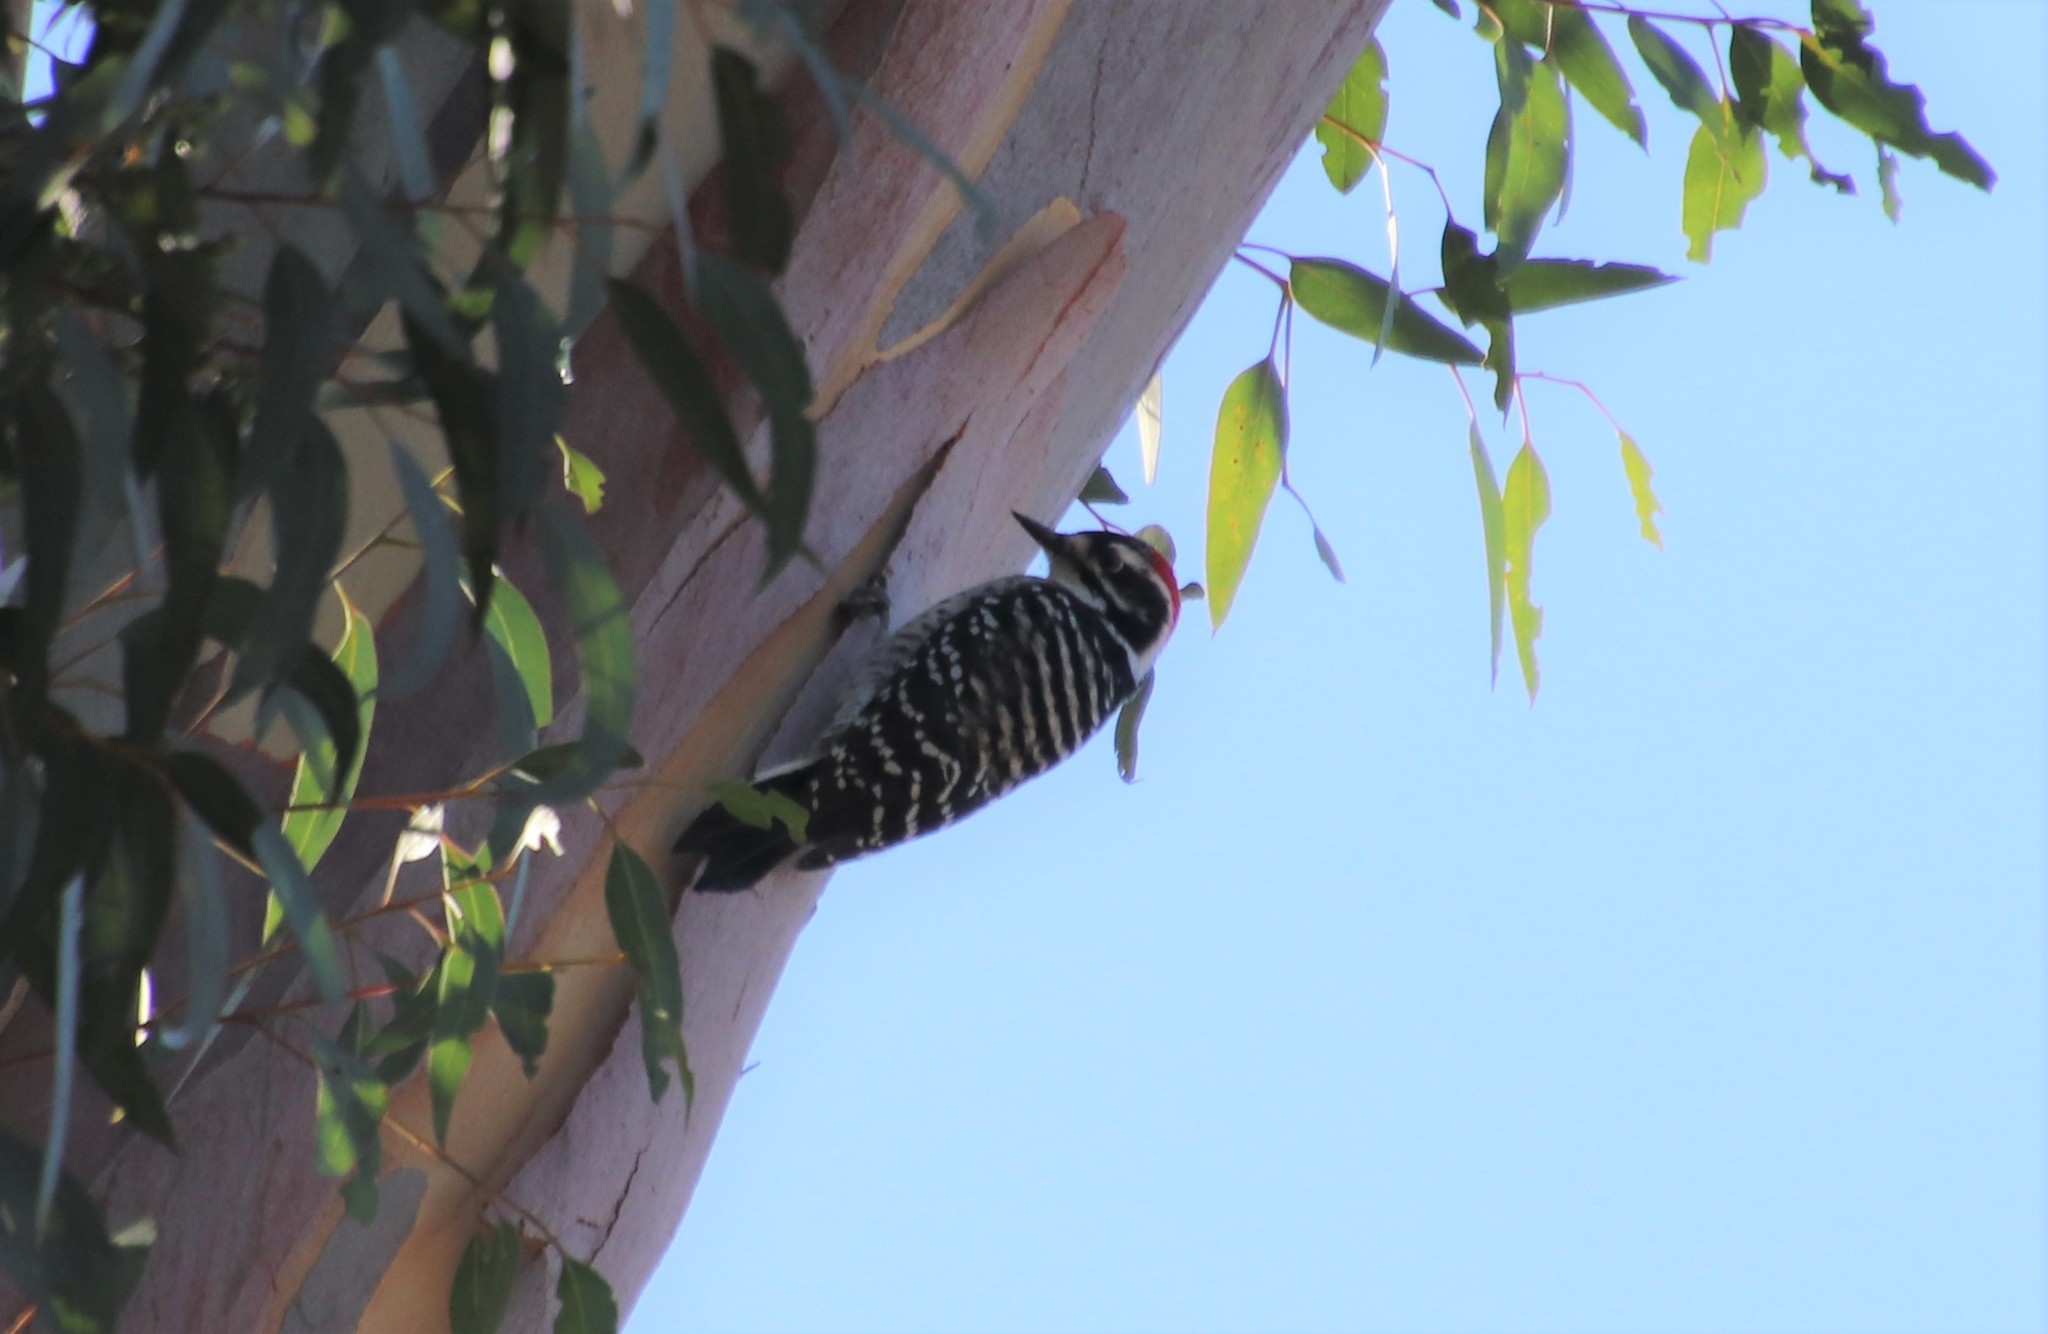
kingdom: Animalia
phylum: Chordata
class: Aves
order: Piciformes
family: Picidae
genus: Dryobates
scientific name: Dryobates nuttallii
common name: Nuttall's woodpecker
